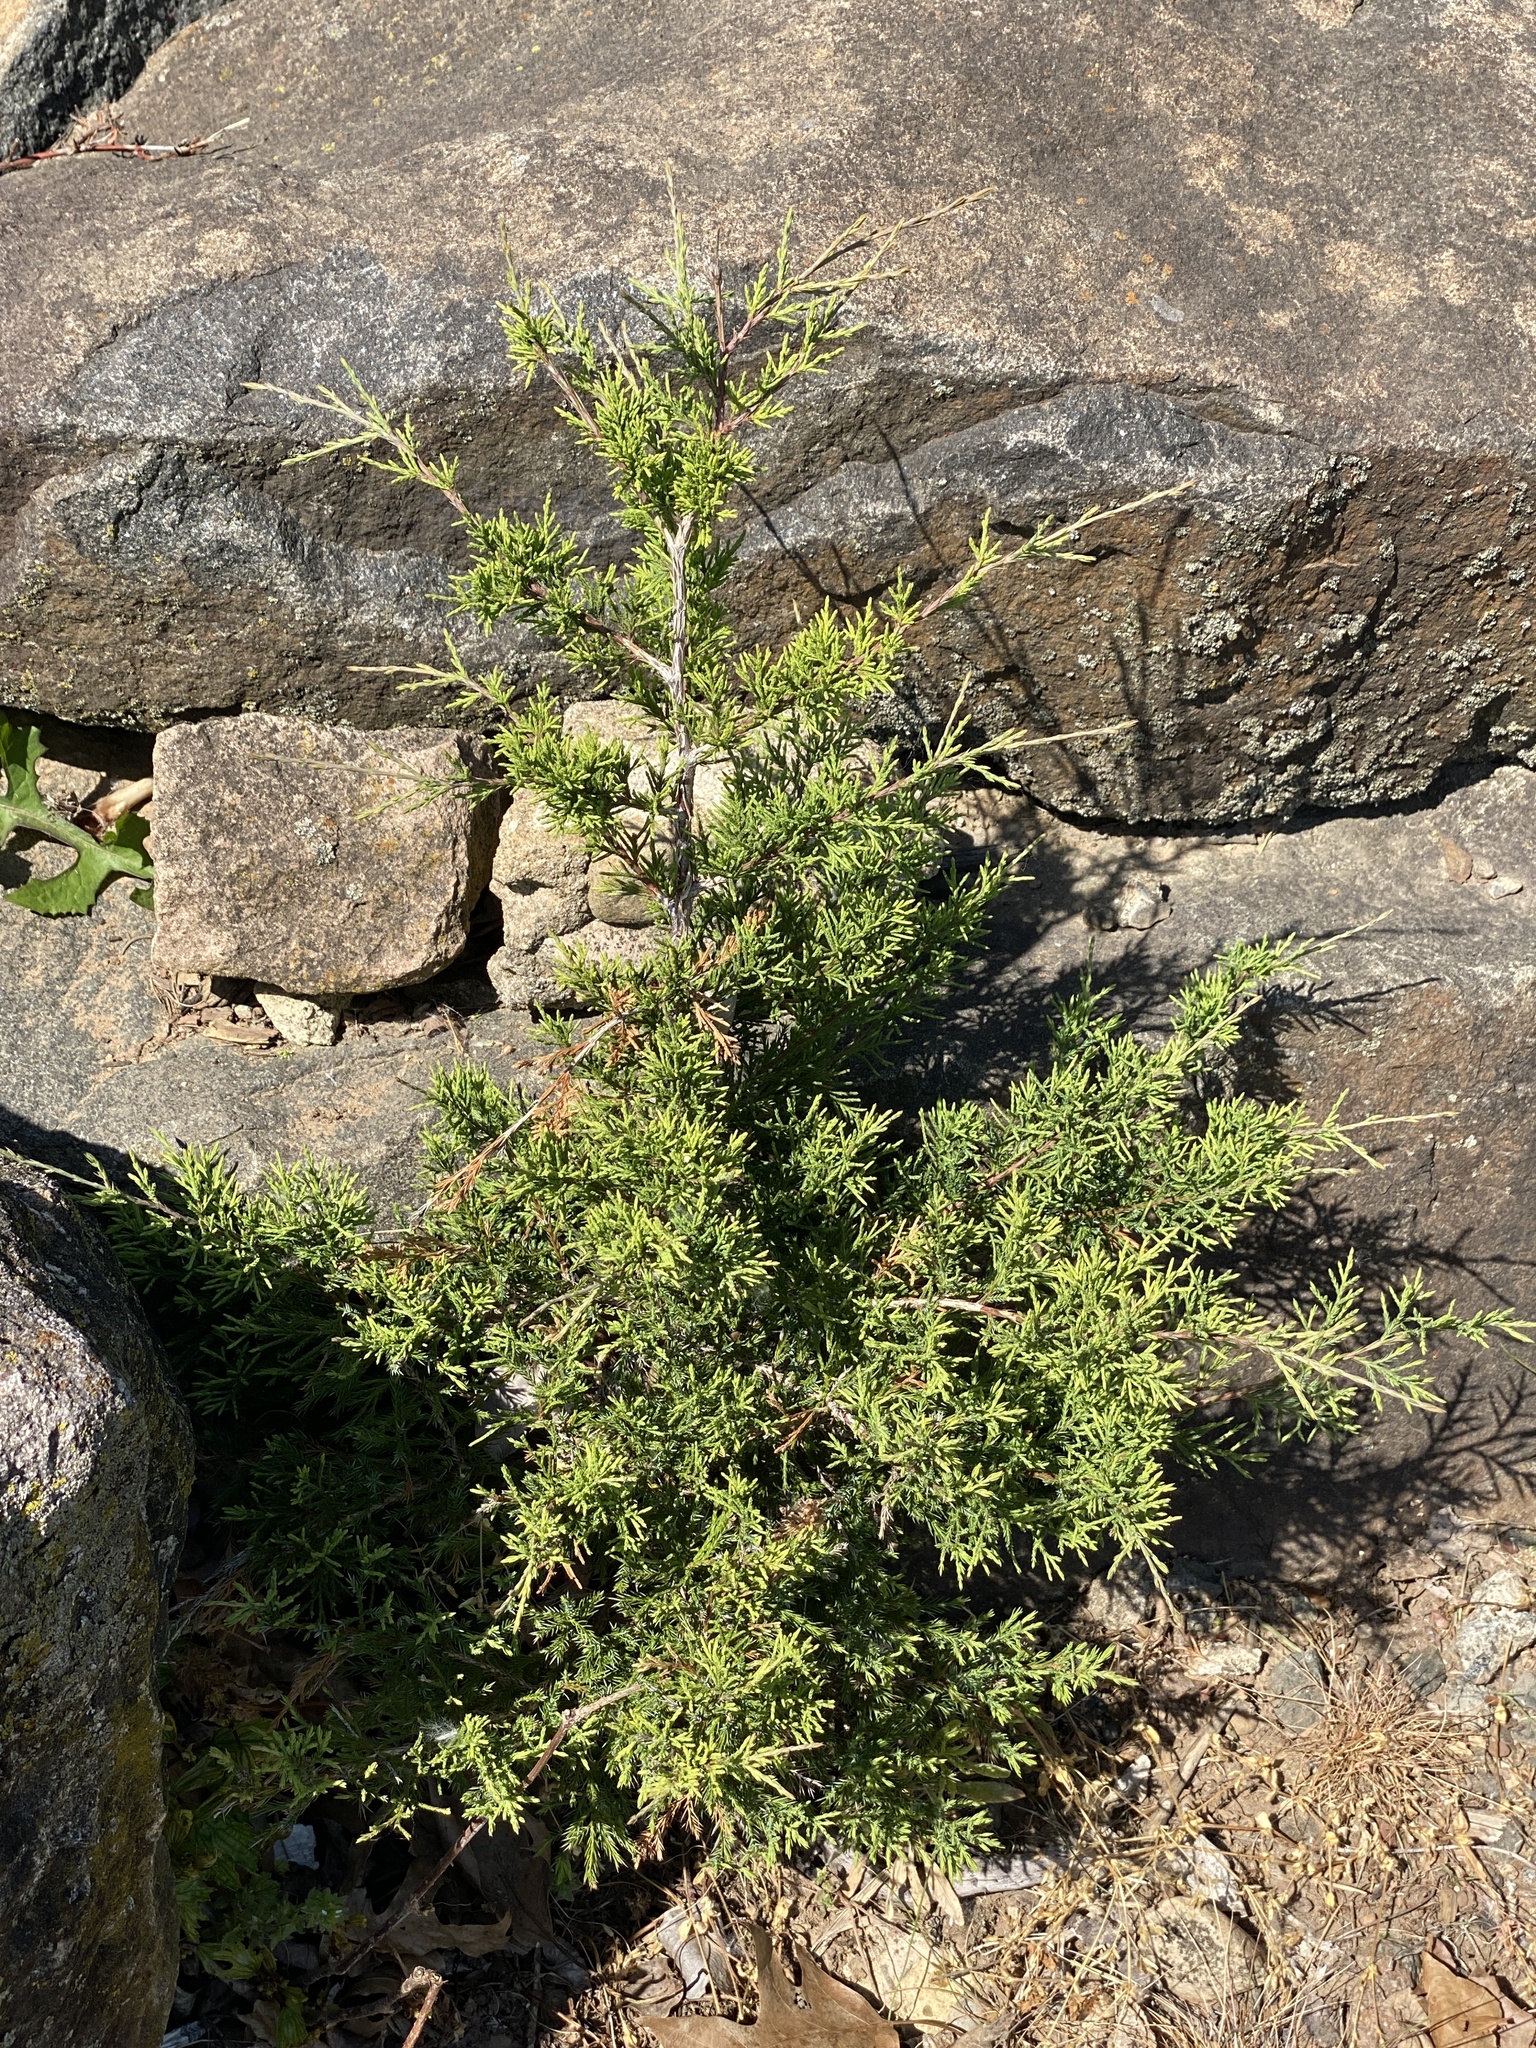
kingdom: Plantae
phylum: Tracheophyta
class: Pinopsida
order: Pinales
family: Cupressaceae
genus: Juniperus
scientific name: Juniperus virginiana
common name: Red juniper
